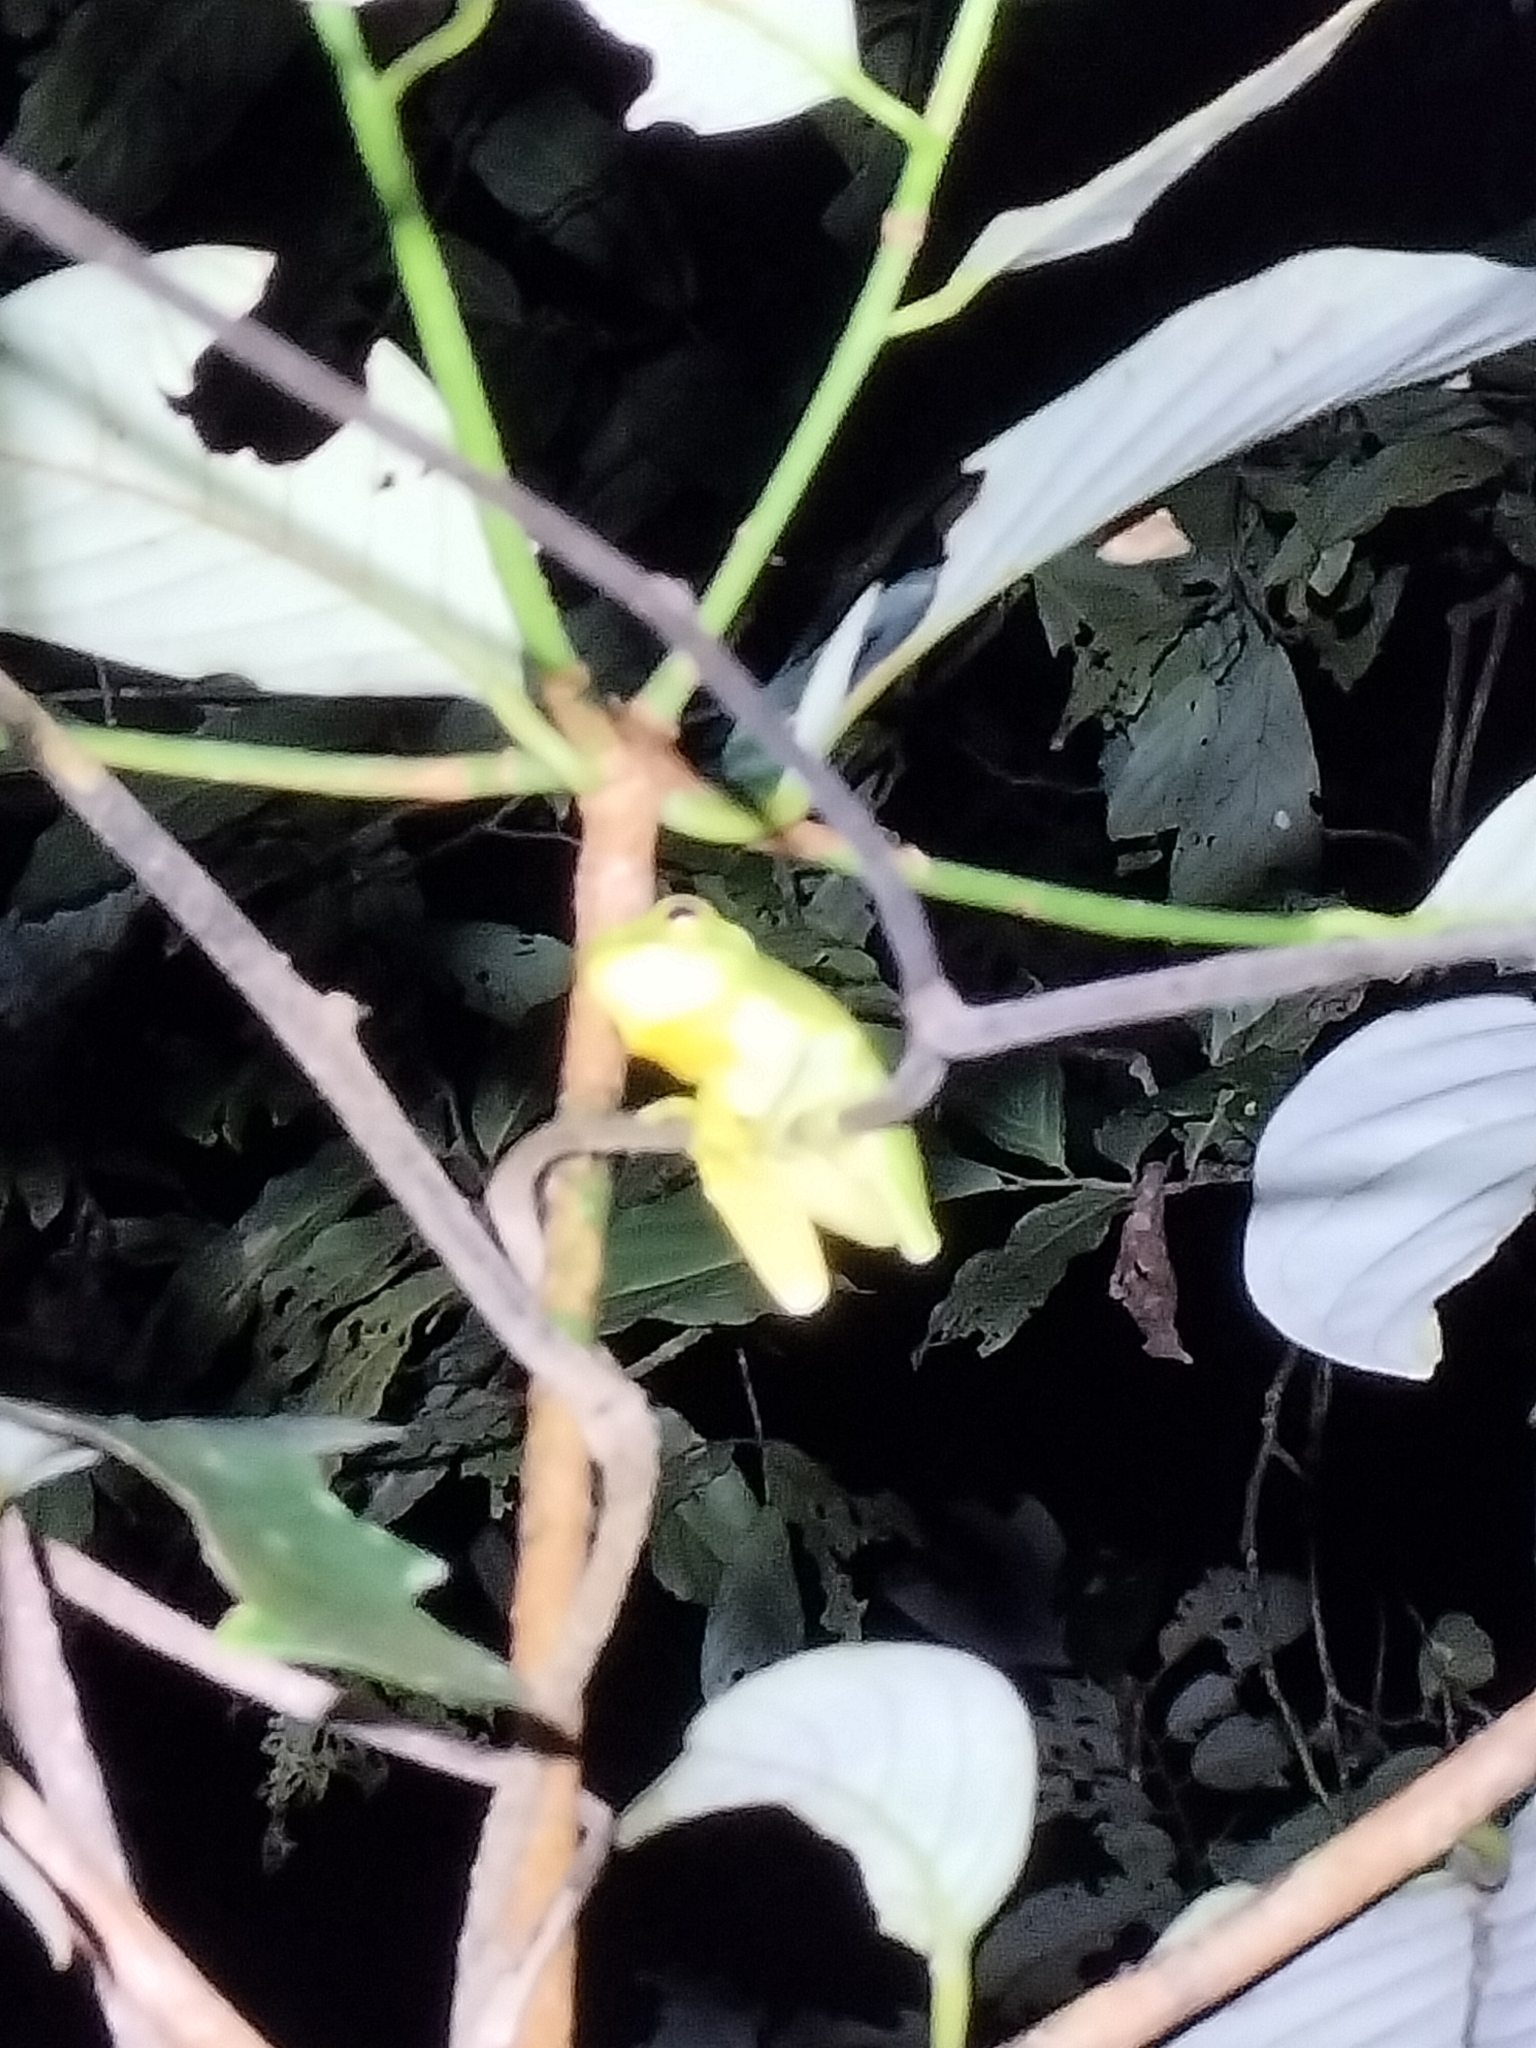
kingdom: Animalia
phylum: Chordata
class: Amphibia
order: Anura
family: Pelodryadidae
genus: Ranoidea
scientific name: Ranoidea gracilenta
